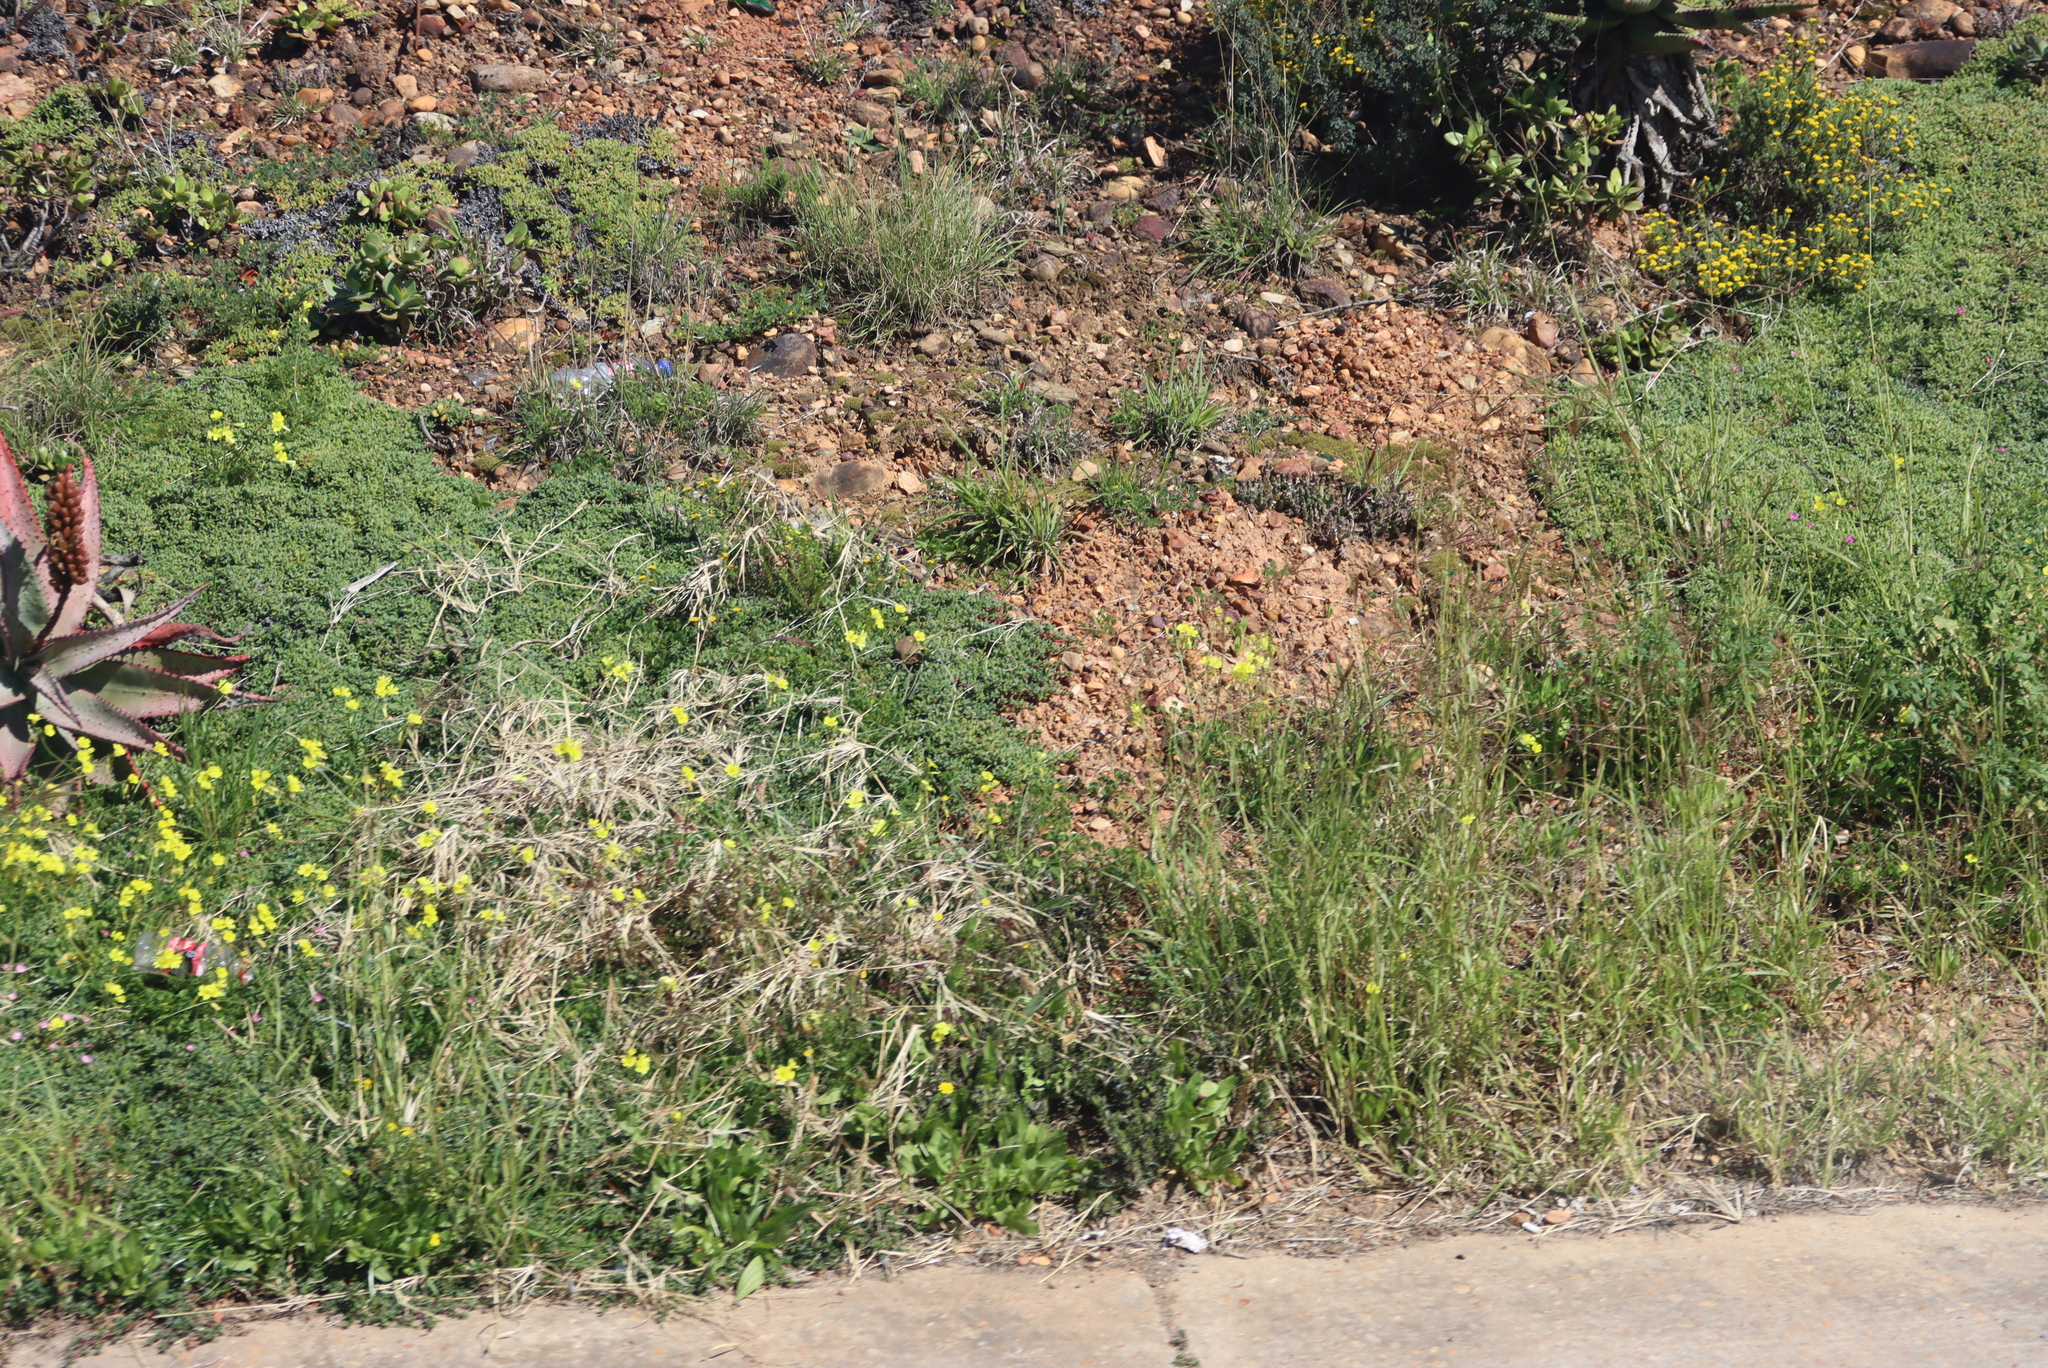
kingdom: Plantae
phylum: Tracheophyta
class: Magnoliopsida
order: Oxalidales
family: Oxalidaceae
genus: Oxalis
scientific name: Oxalis pes-caprae
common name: Bermuda-buttercup
